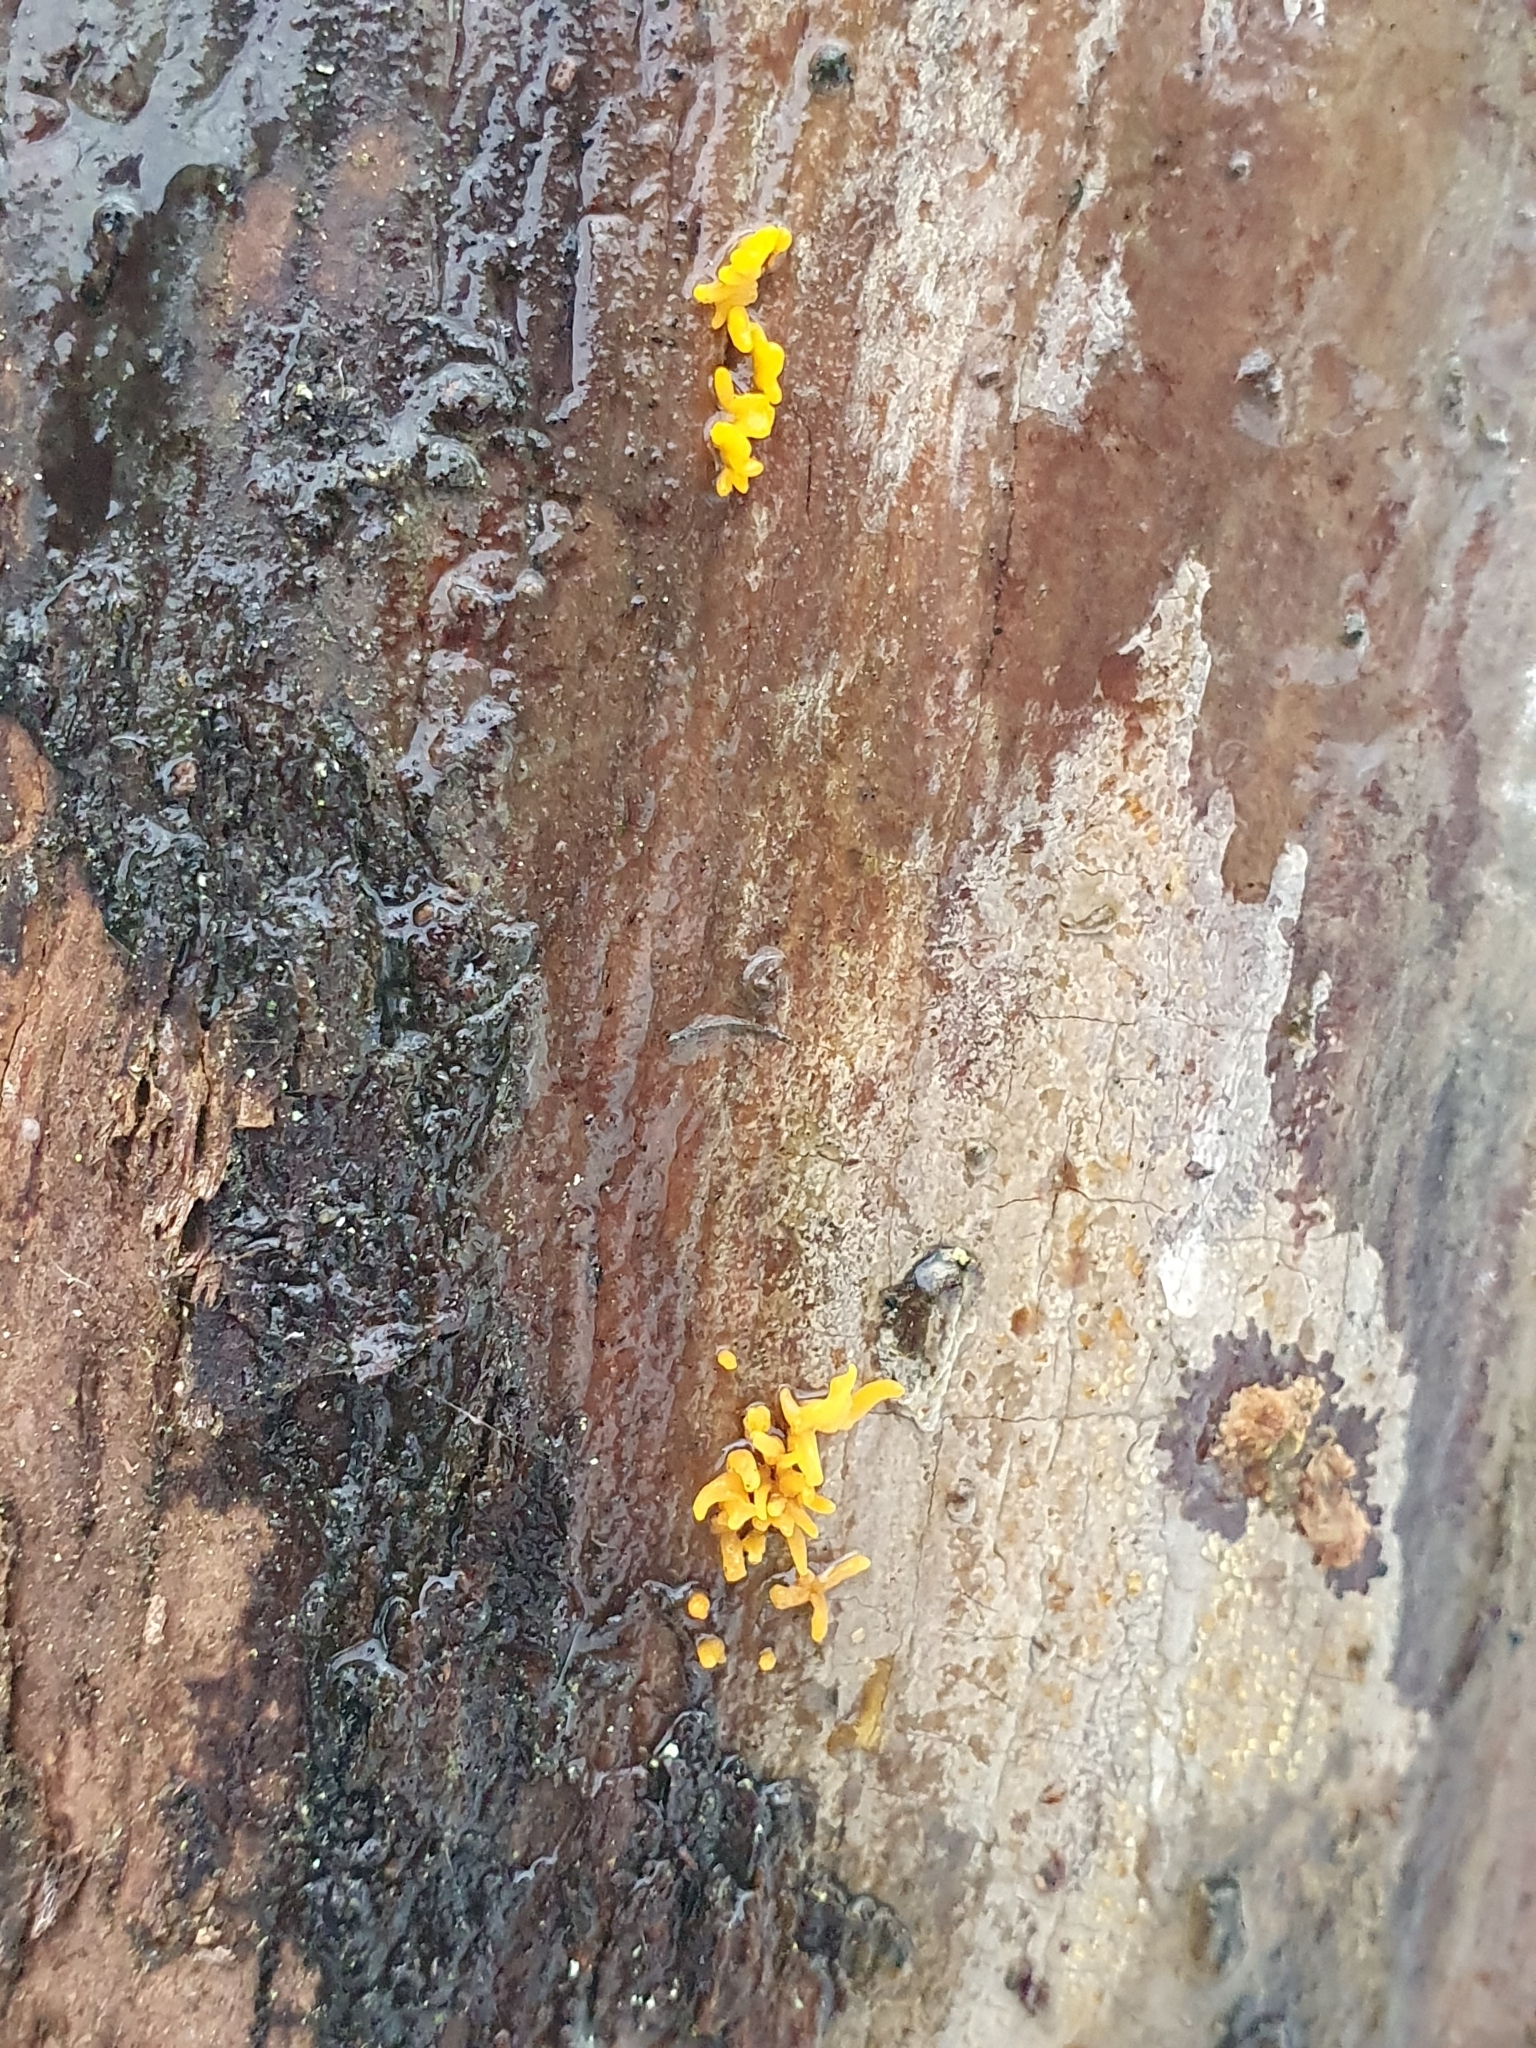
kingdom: Fungi
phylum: Basidiomycota
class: Dacrymycetes
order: Dacrymycetales
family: Dacrymycetaceae
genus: Calocera
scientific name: Calocera cornea
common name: Small stagshorn
